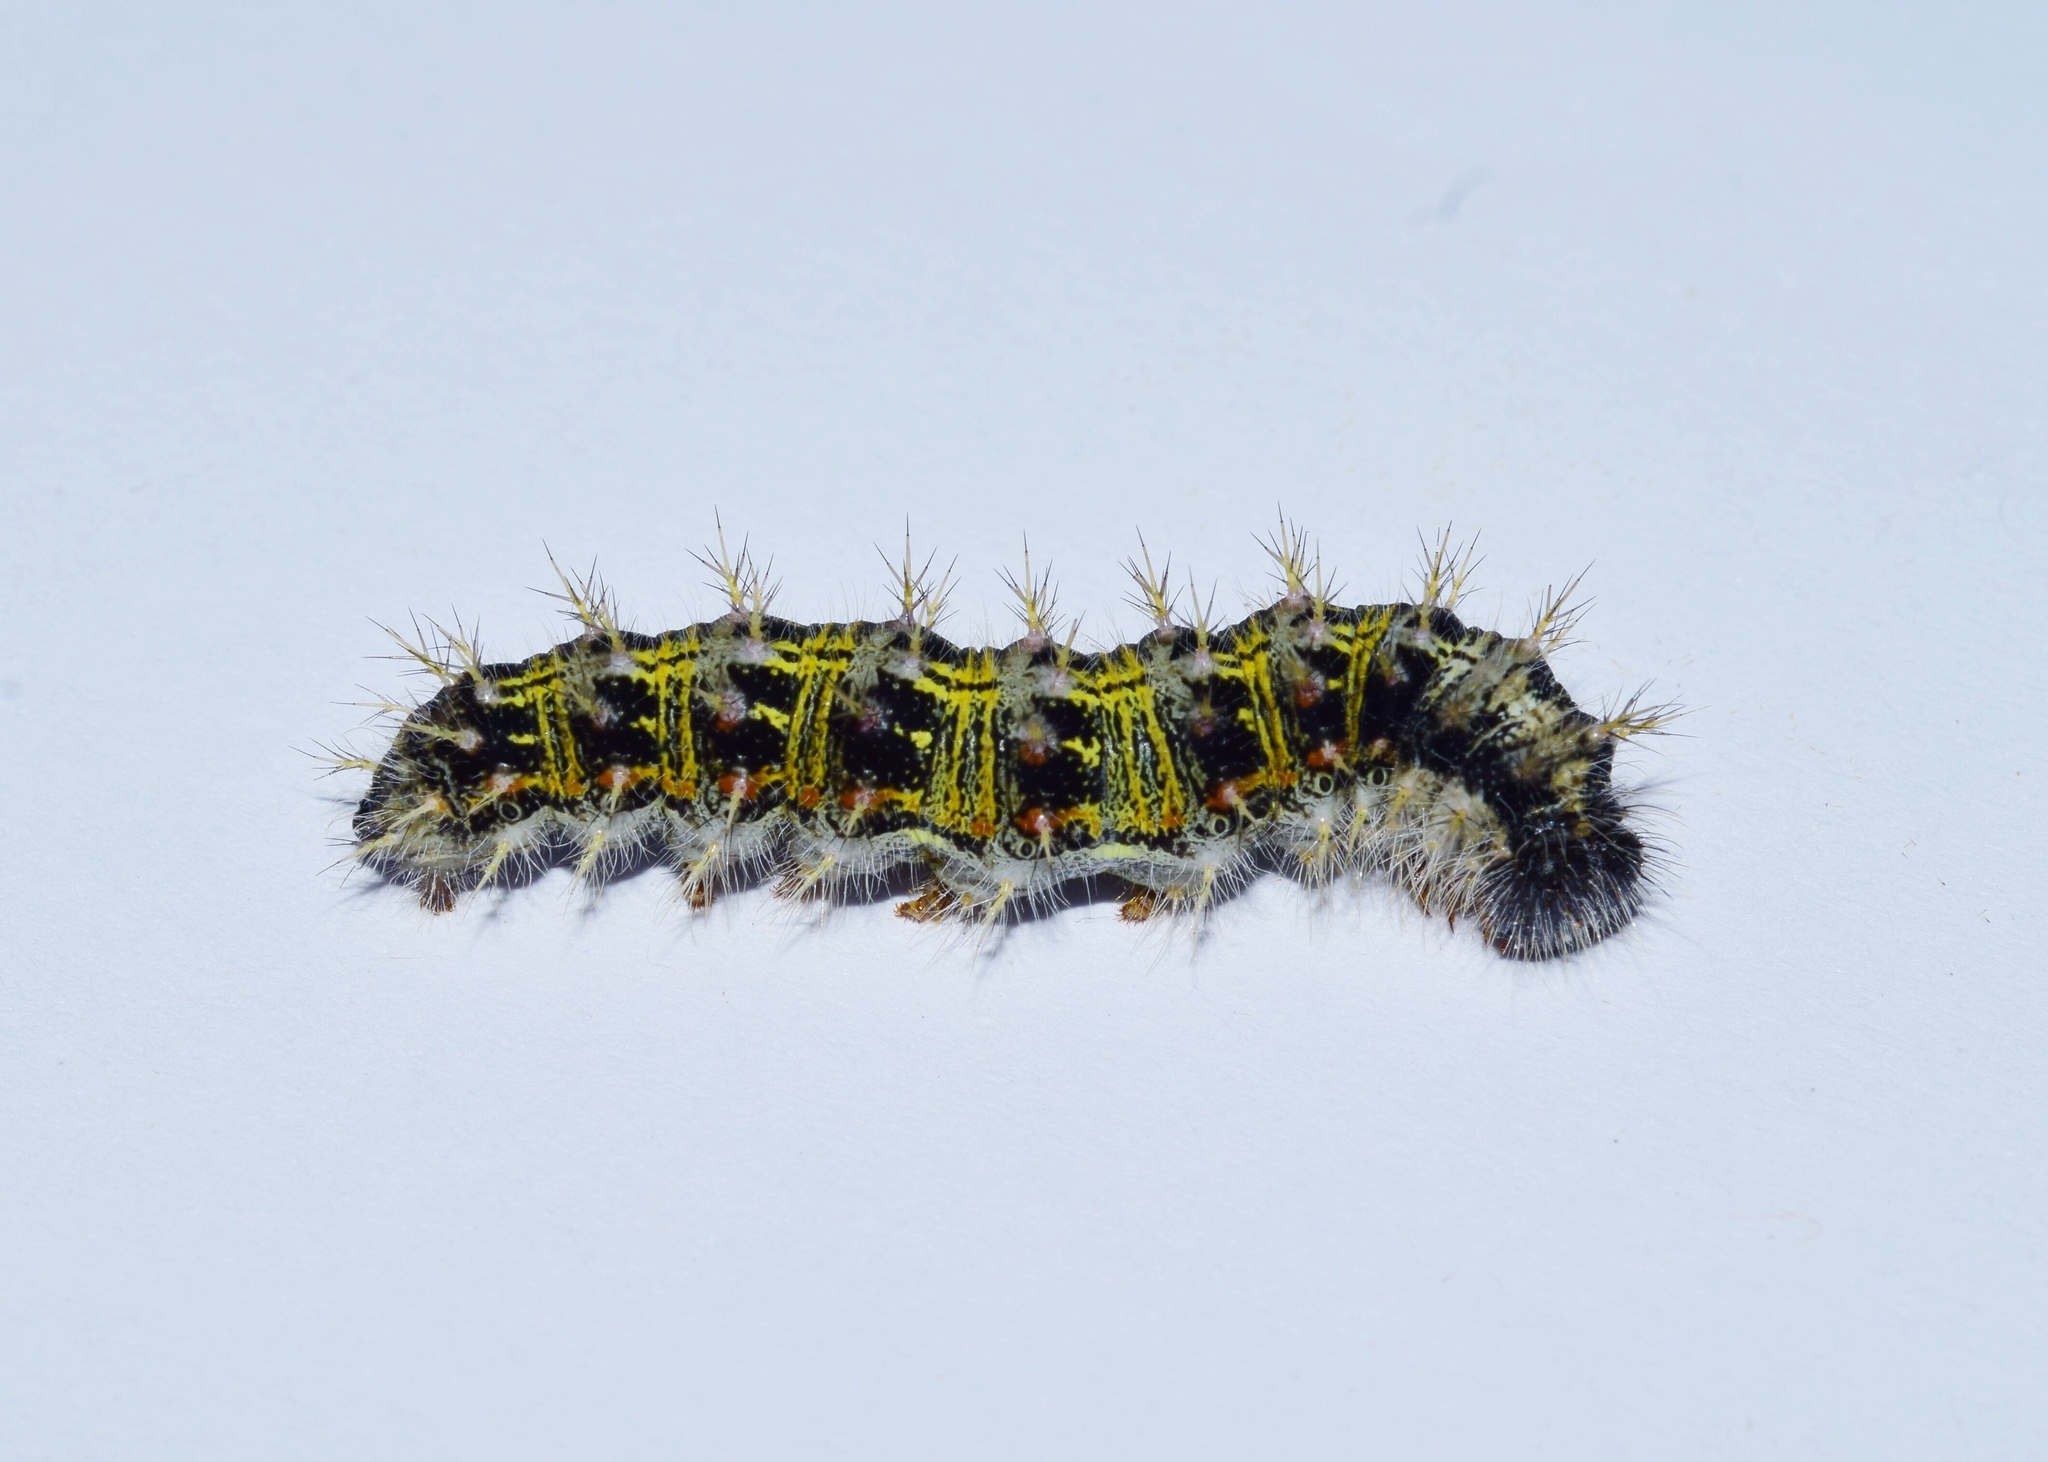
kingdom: Animalia
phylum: Arthropoda
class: Insecta
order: Lepidoptera
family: Nymphalidae
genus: Vanessa
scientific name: Vanessa cardui
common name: Painted lady
